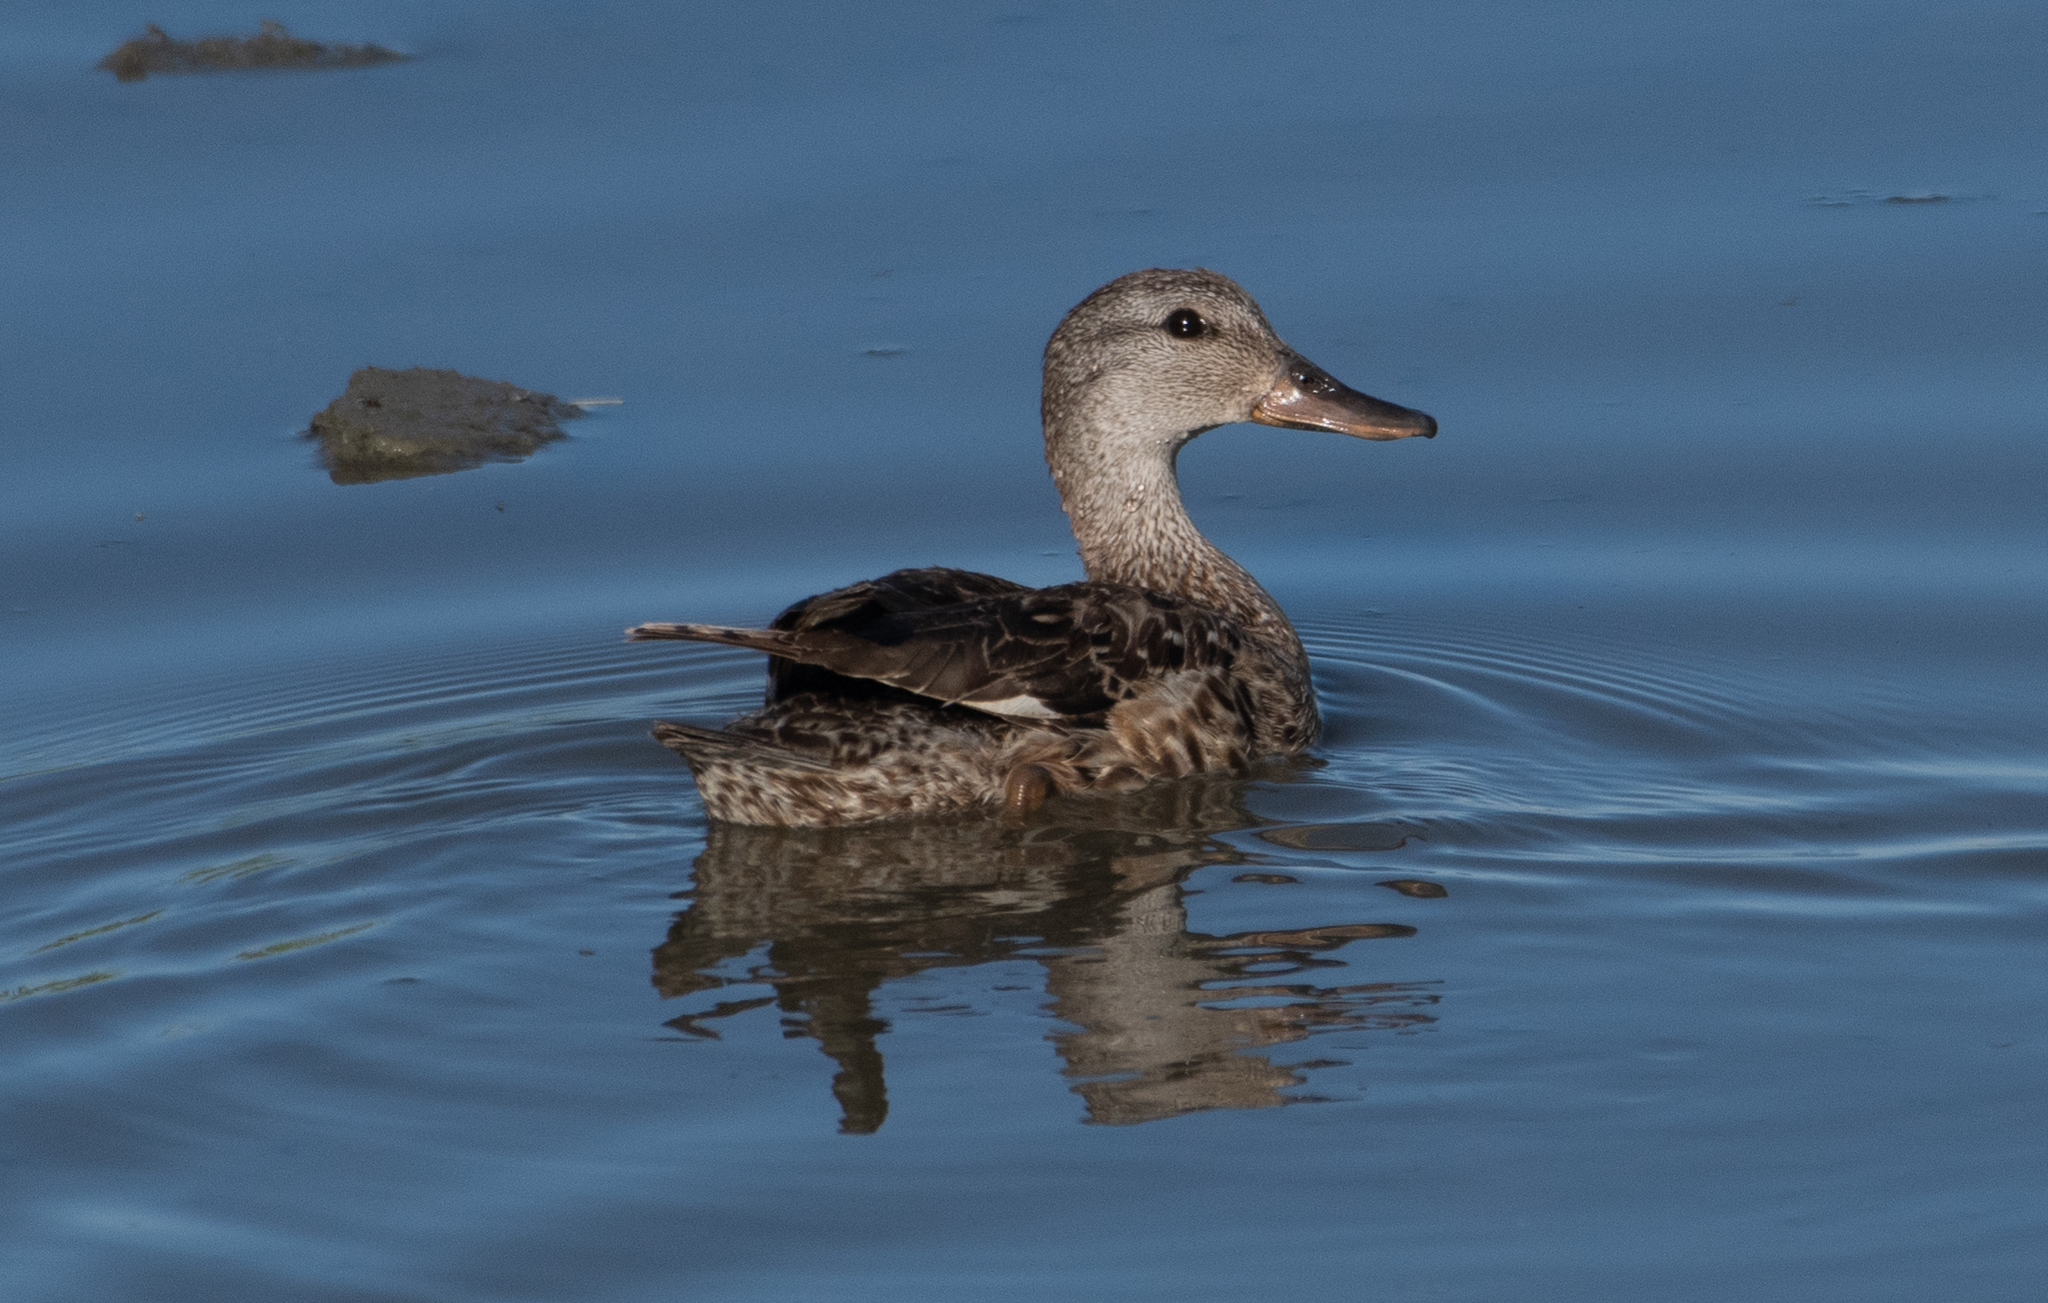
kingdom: Animalia
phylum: Chordata
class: Aves
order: Anseriformes
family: Anatidae
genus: Mareca
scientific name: Mareca strepera
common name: Gadwall
